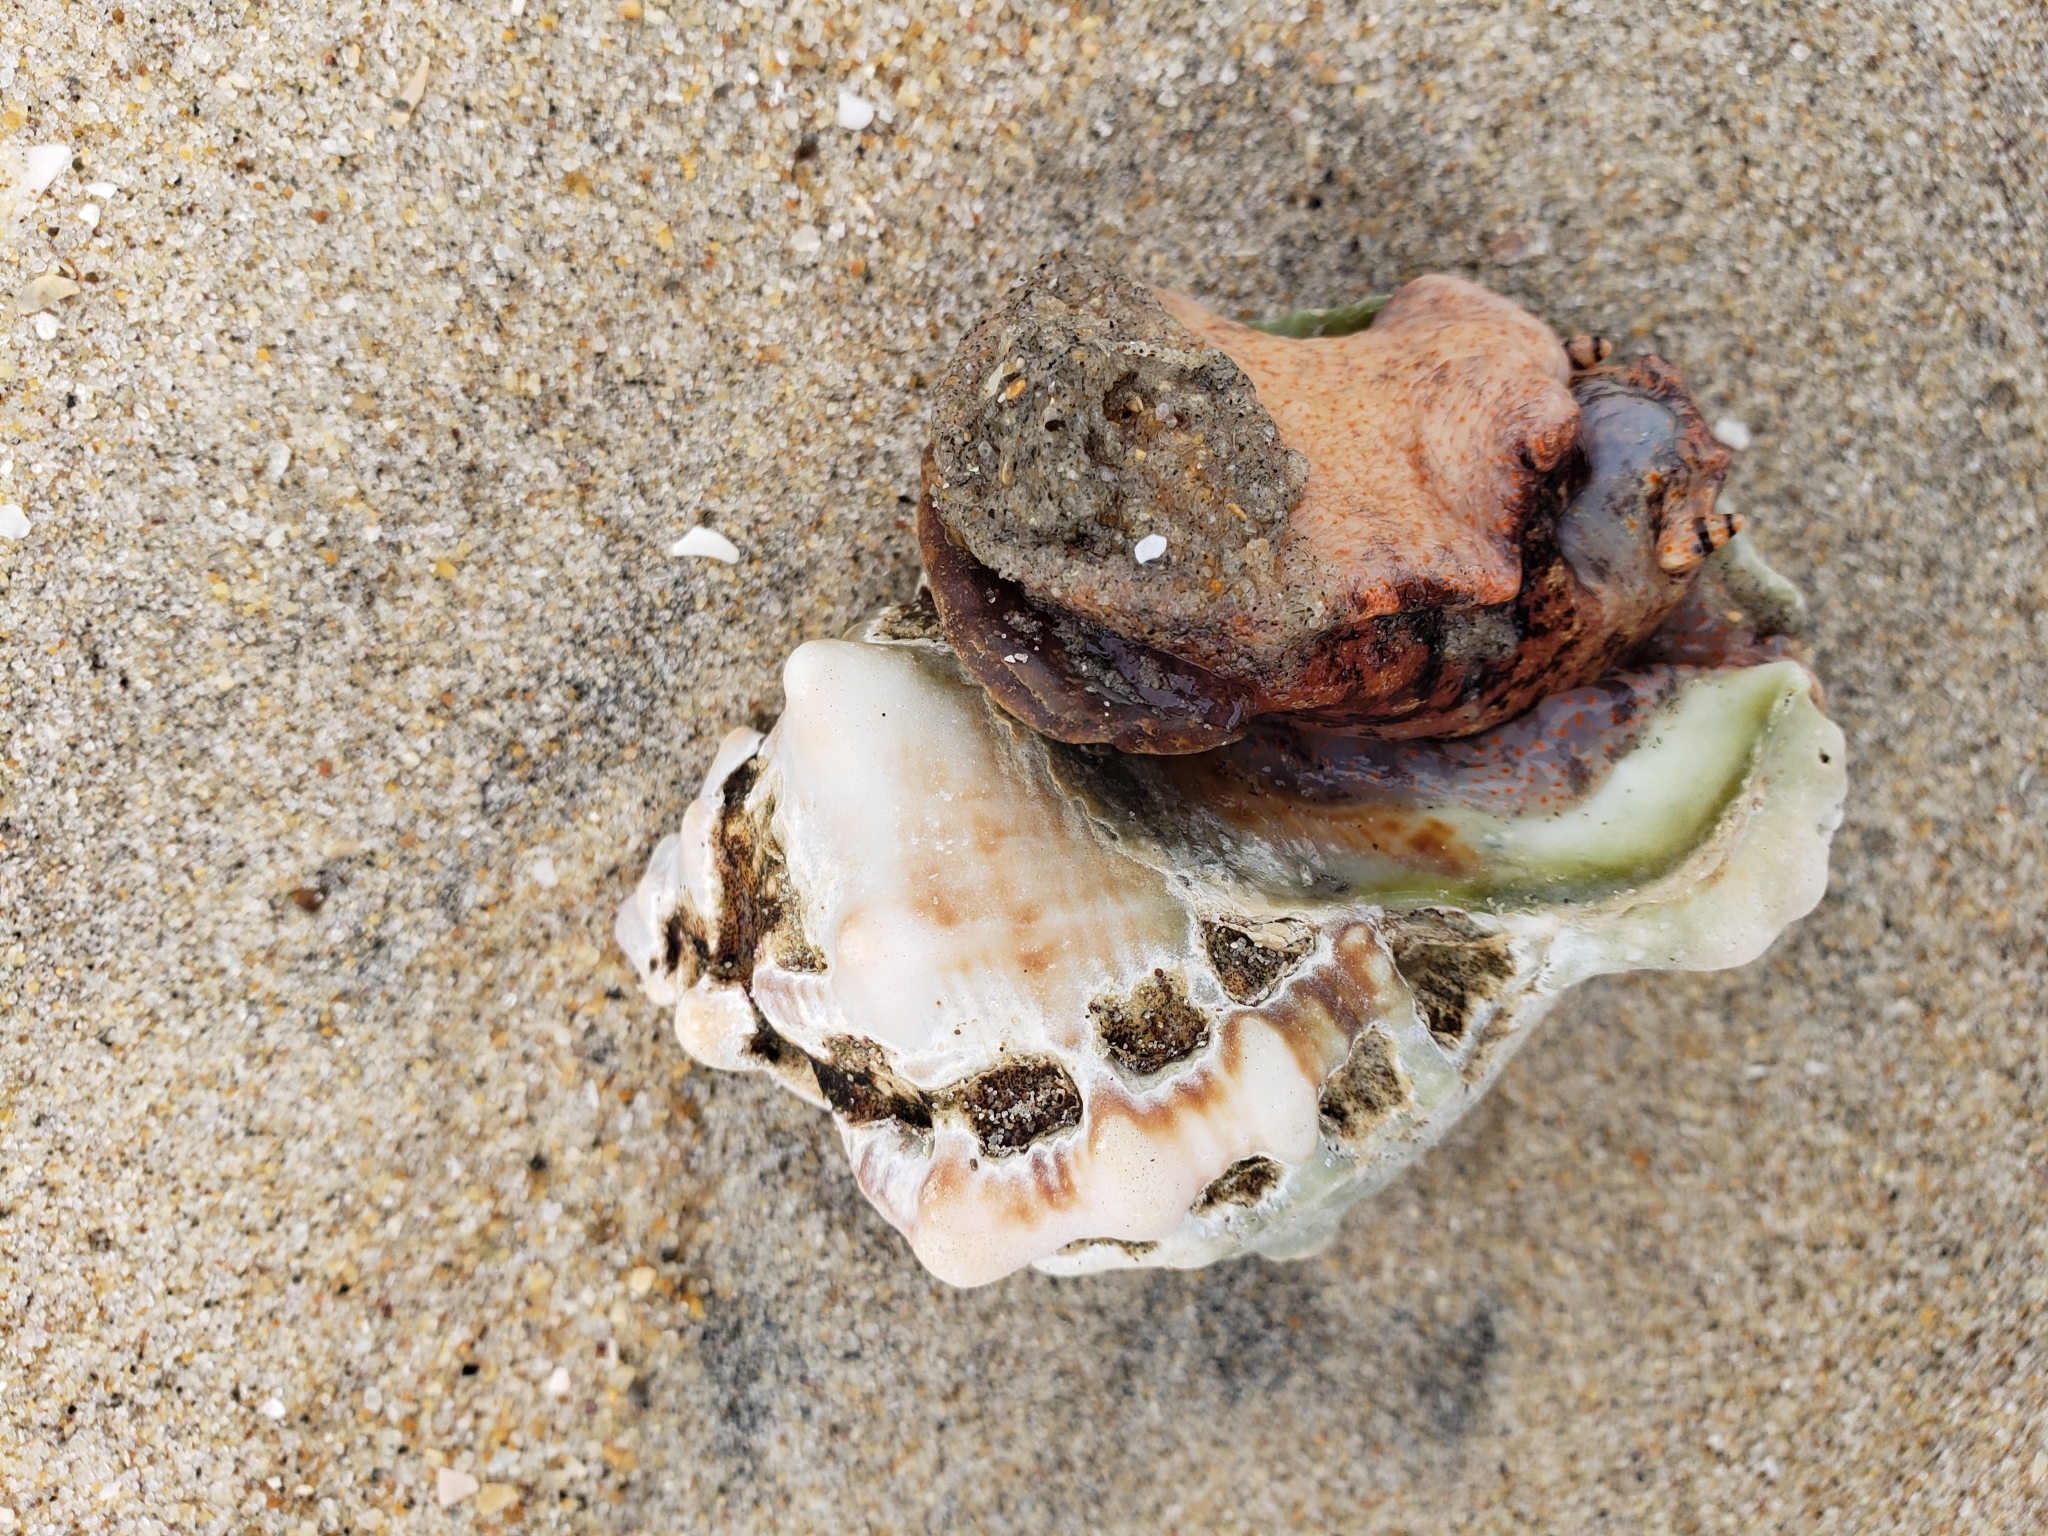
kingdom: Animalia
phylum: Mollusca
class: Gastropoda
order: Littorinimorpha
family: Bursidae
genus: Crossata
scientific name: Crossata californica
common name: California frogsnail
